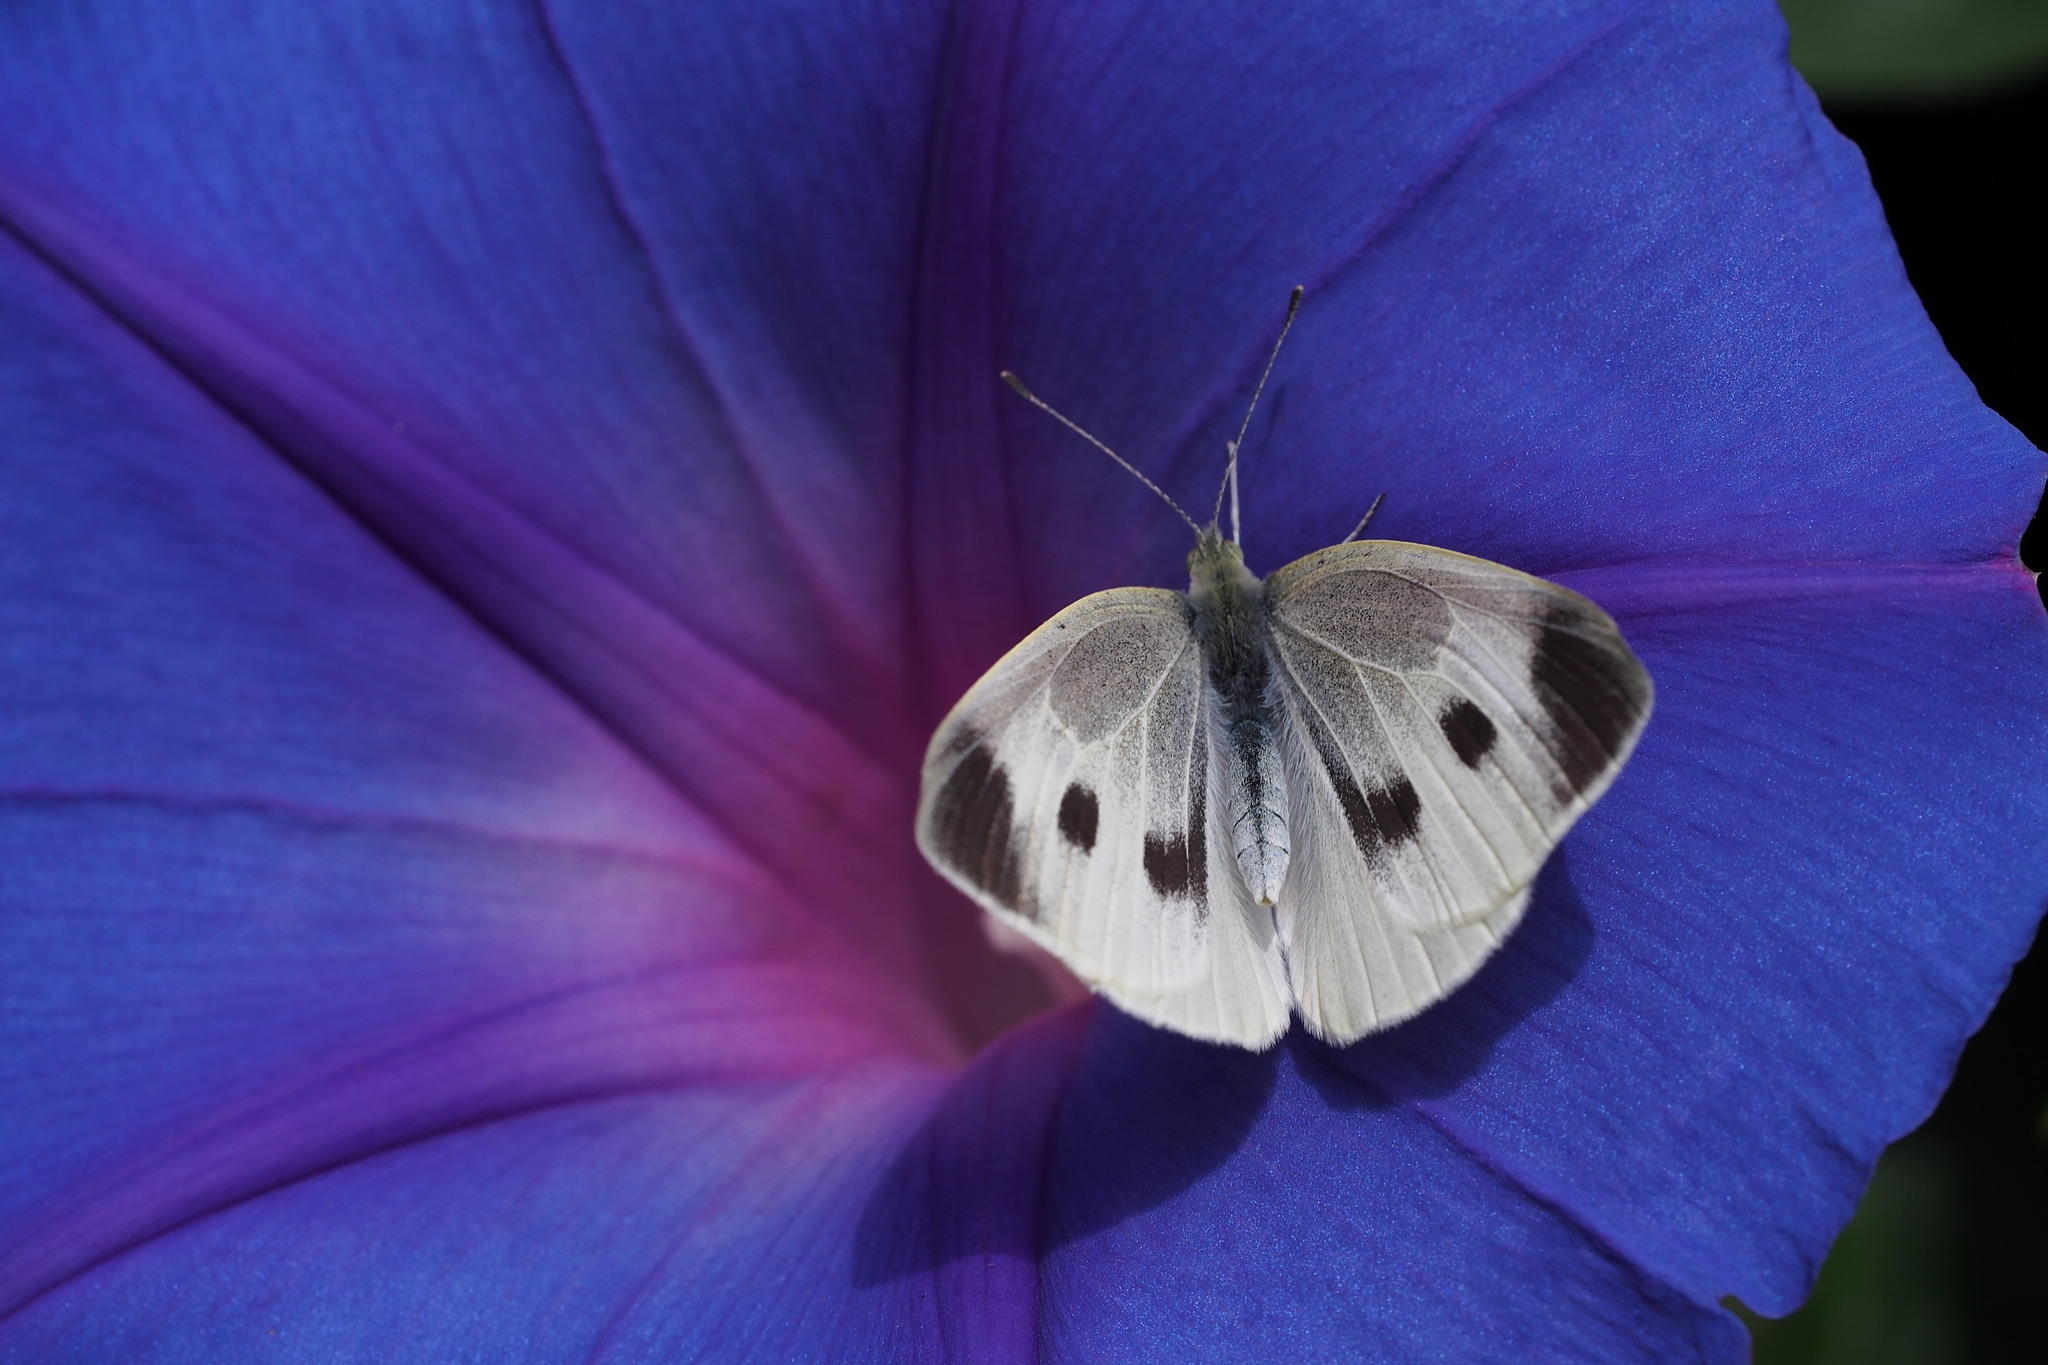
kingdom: Animalia
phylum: Arthropoda
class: Insecta
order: Lepidoptera
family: Pieridae
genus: Pieris
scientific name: Pieris rapae
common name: Small white
